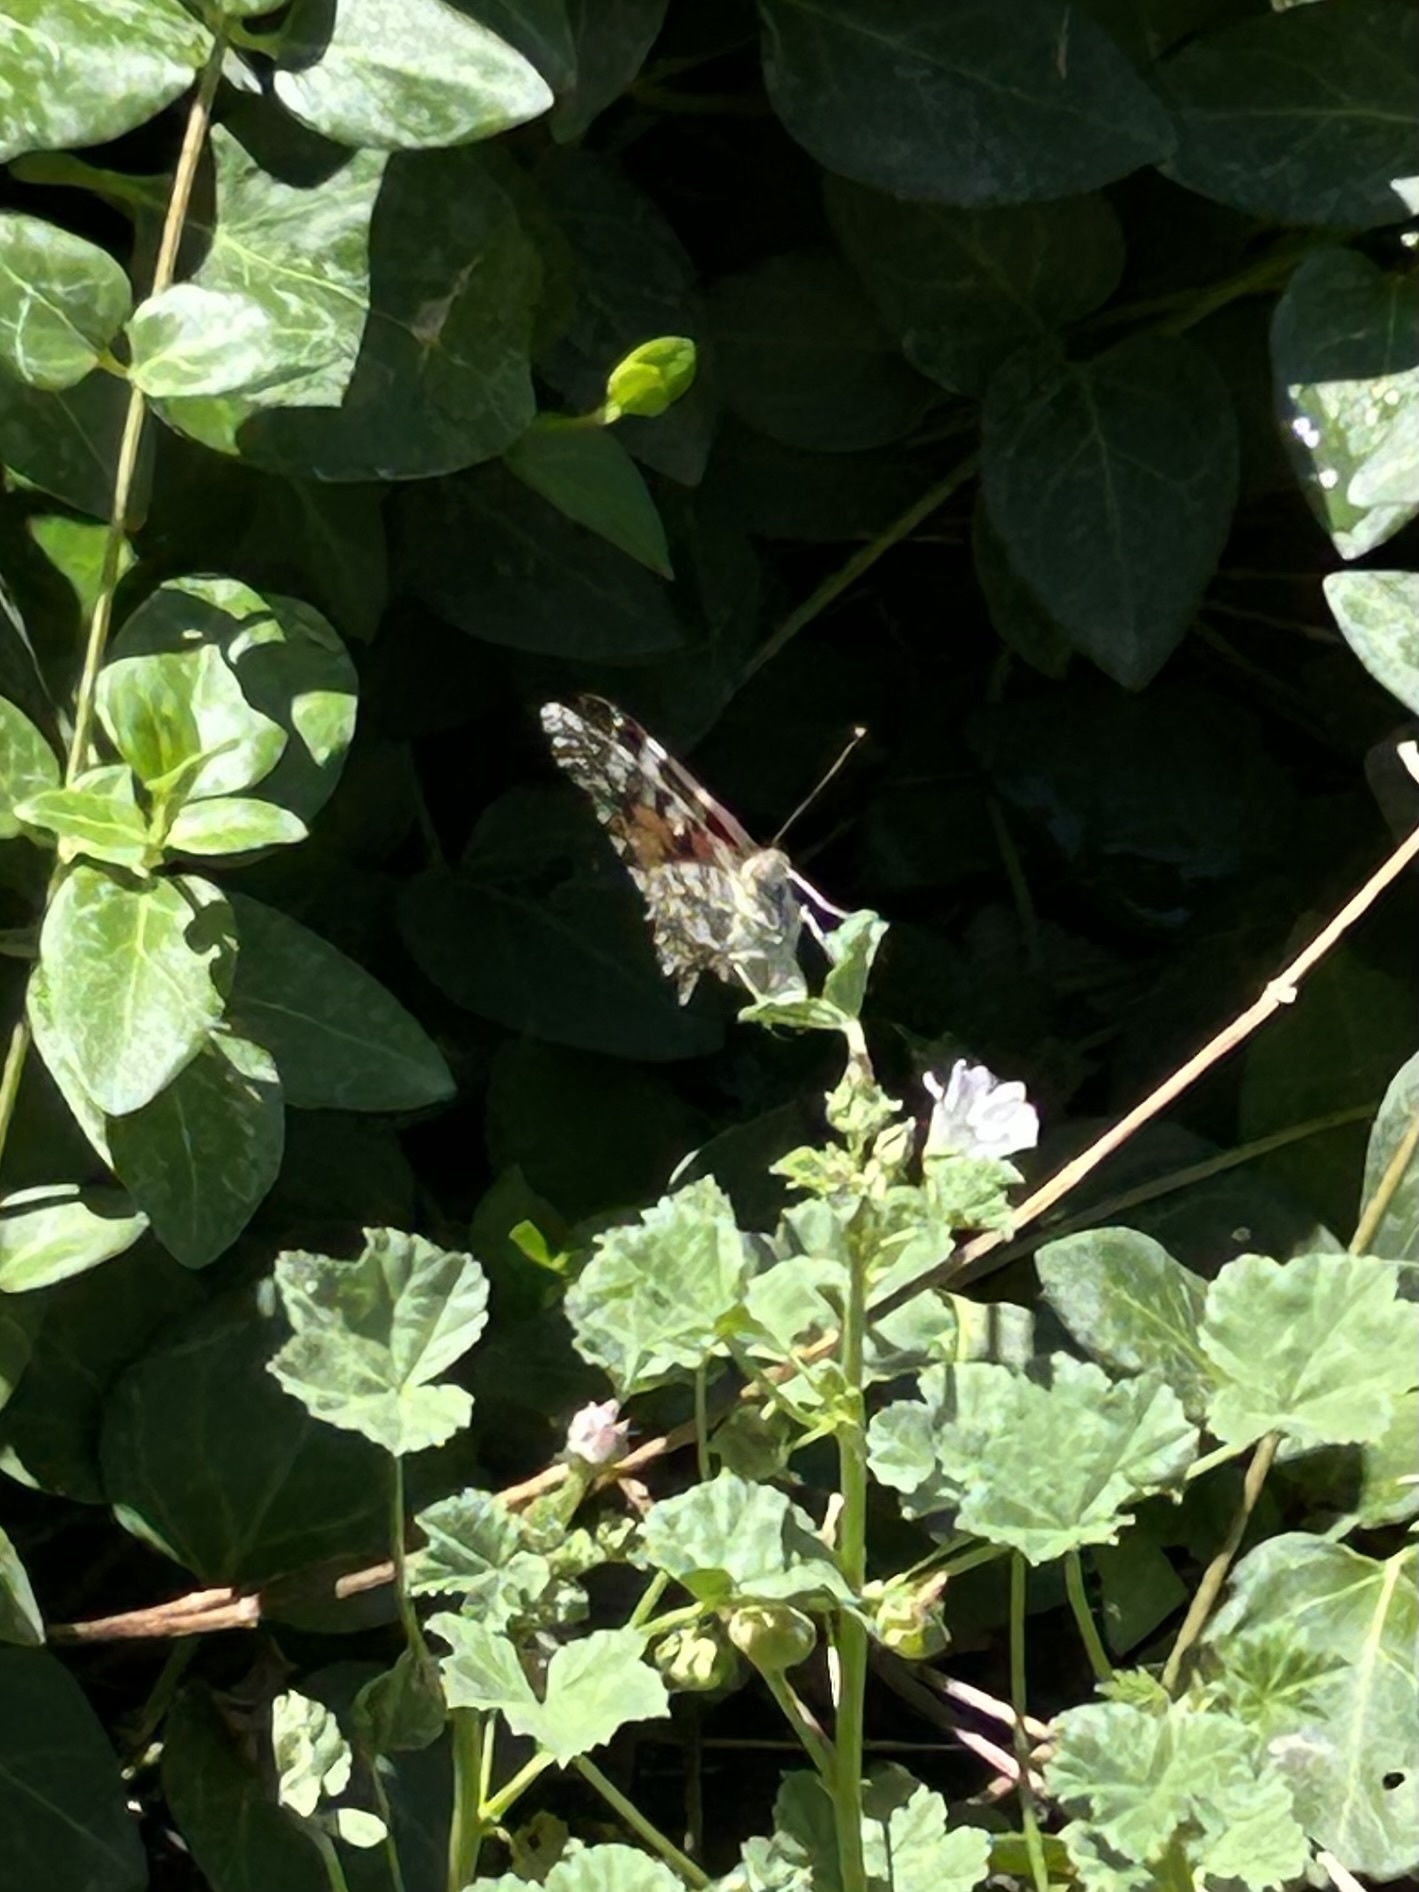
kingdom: Animalia
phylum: Arthropoda
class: Insecta
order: Lepidoptera
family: Nymphalidae
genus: Vanessa
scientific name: Vanessa cardui
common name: Painted lady
